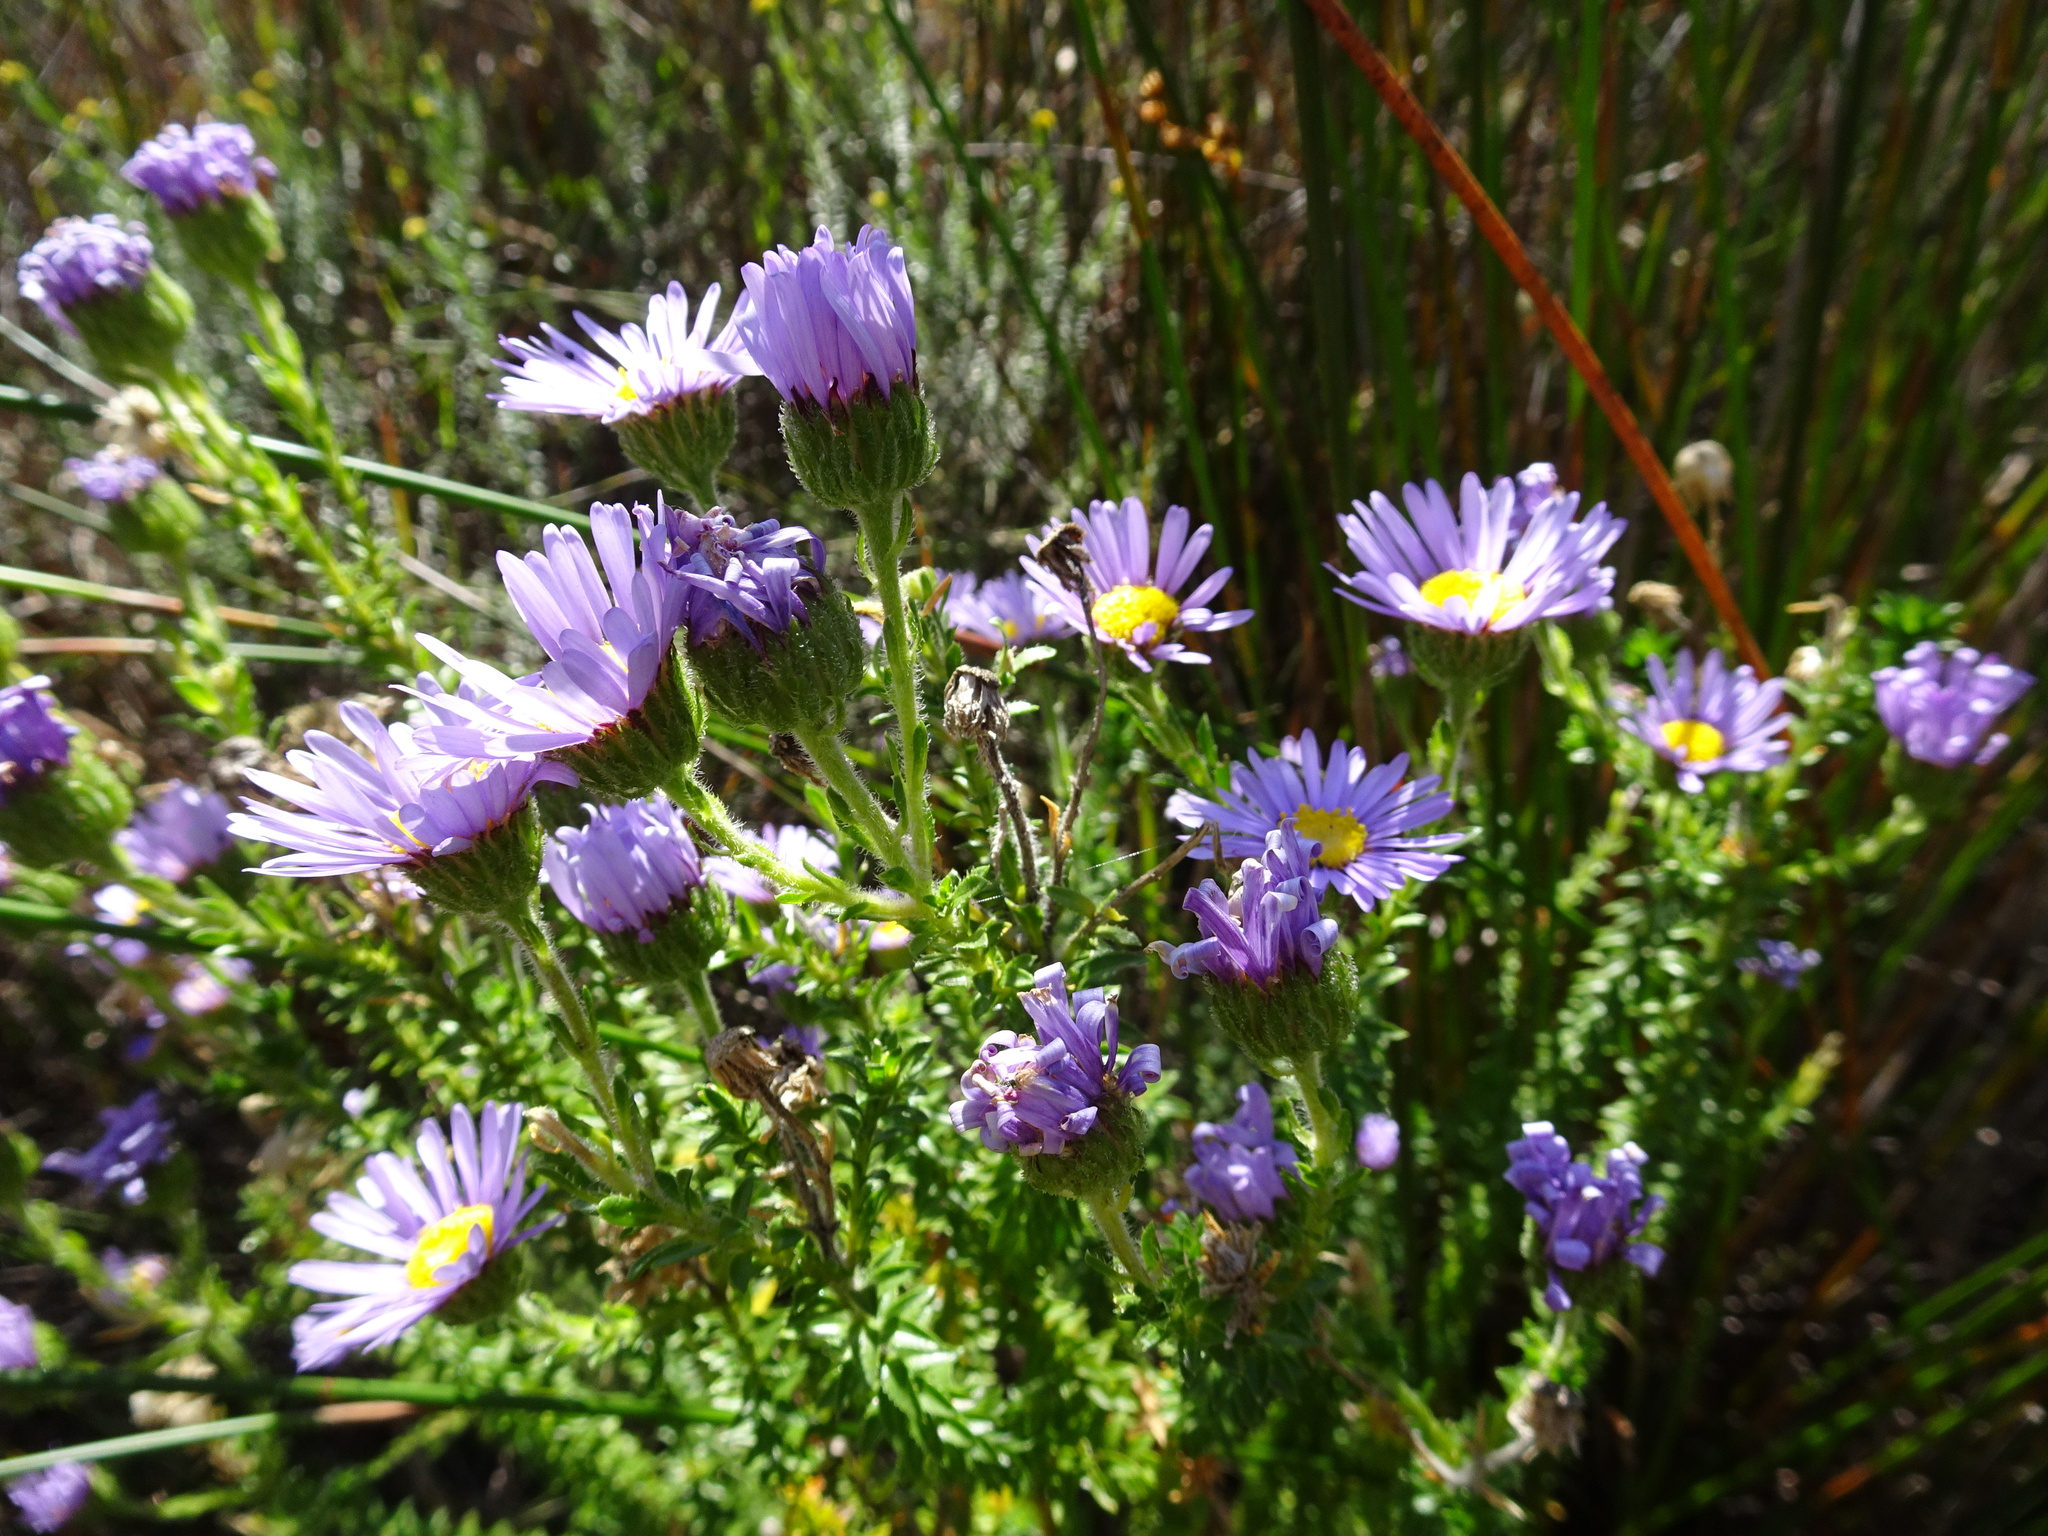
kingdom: Plantae
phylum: Tracheophyta
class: Magnoliopsida
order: Asterales
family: Asteraceae
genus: Felicia
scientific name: Felicia echinata
